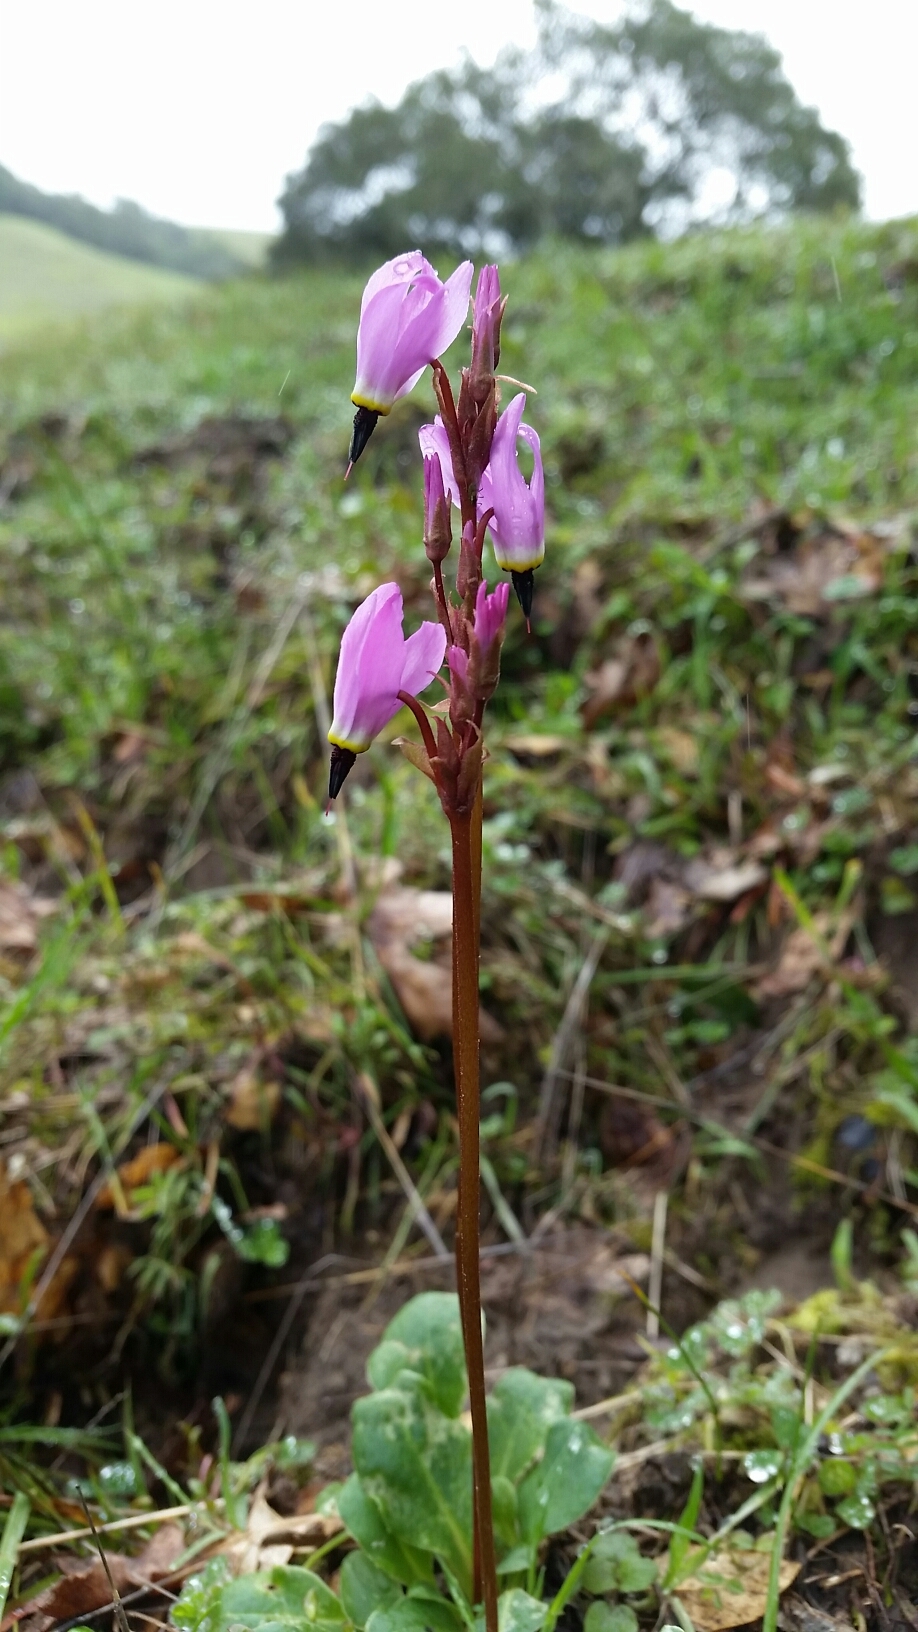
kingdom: Plantae
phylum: Tracheophyta
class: Magnoliopsida
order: Ericales
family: Primulaceae
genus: Dodecatheon
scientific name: Dodecatheon hendersonii
